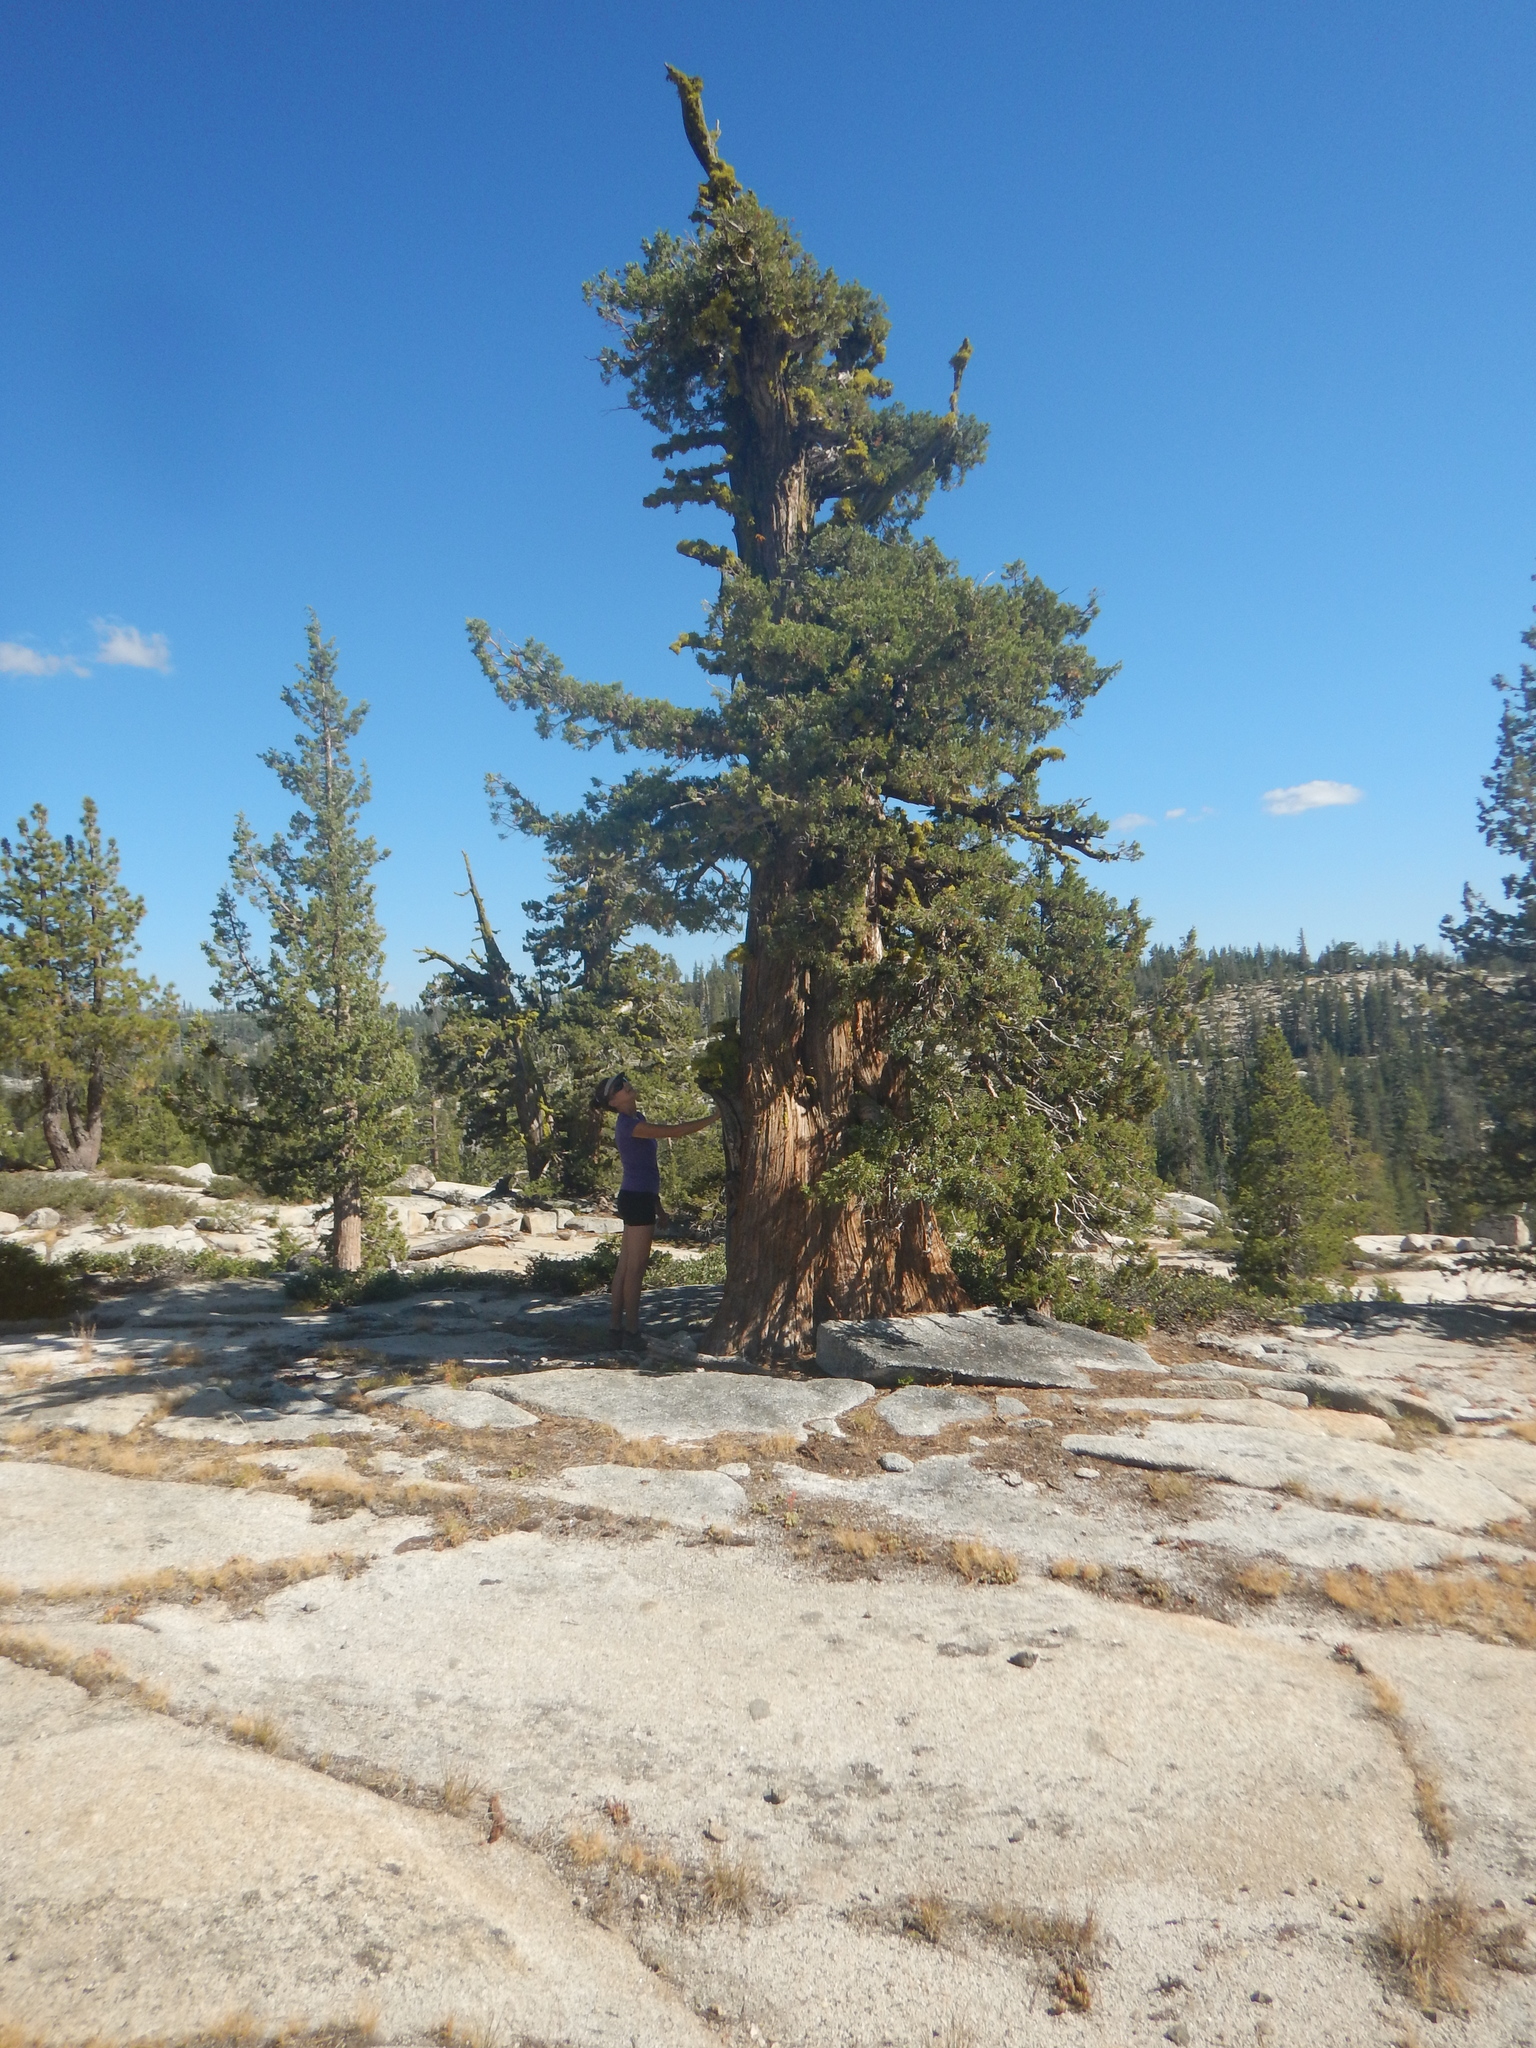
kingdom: Plantae
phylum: Tracheophyta
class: Pinopsida
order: Pinales
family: Cupressaceae
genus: Juniperus
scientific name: Juniperus occidentalis
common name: Western juniper
